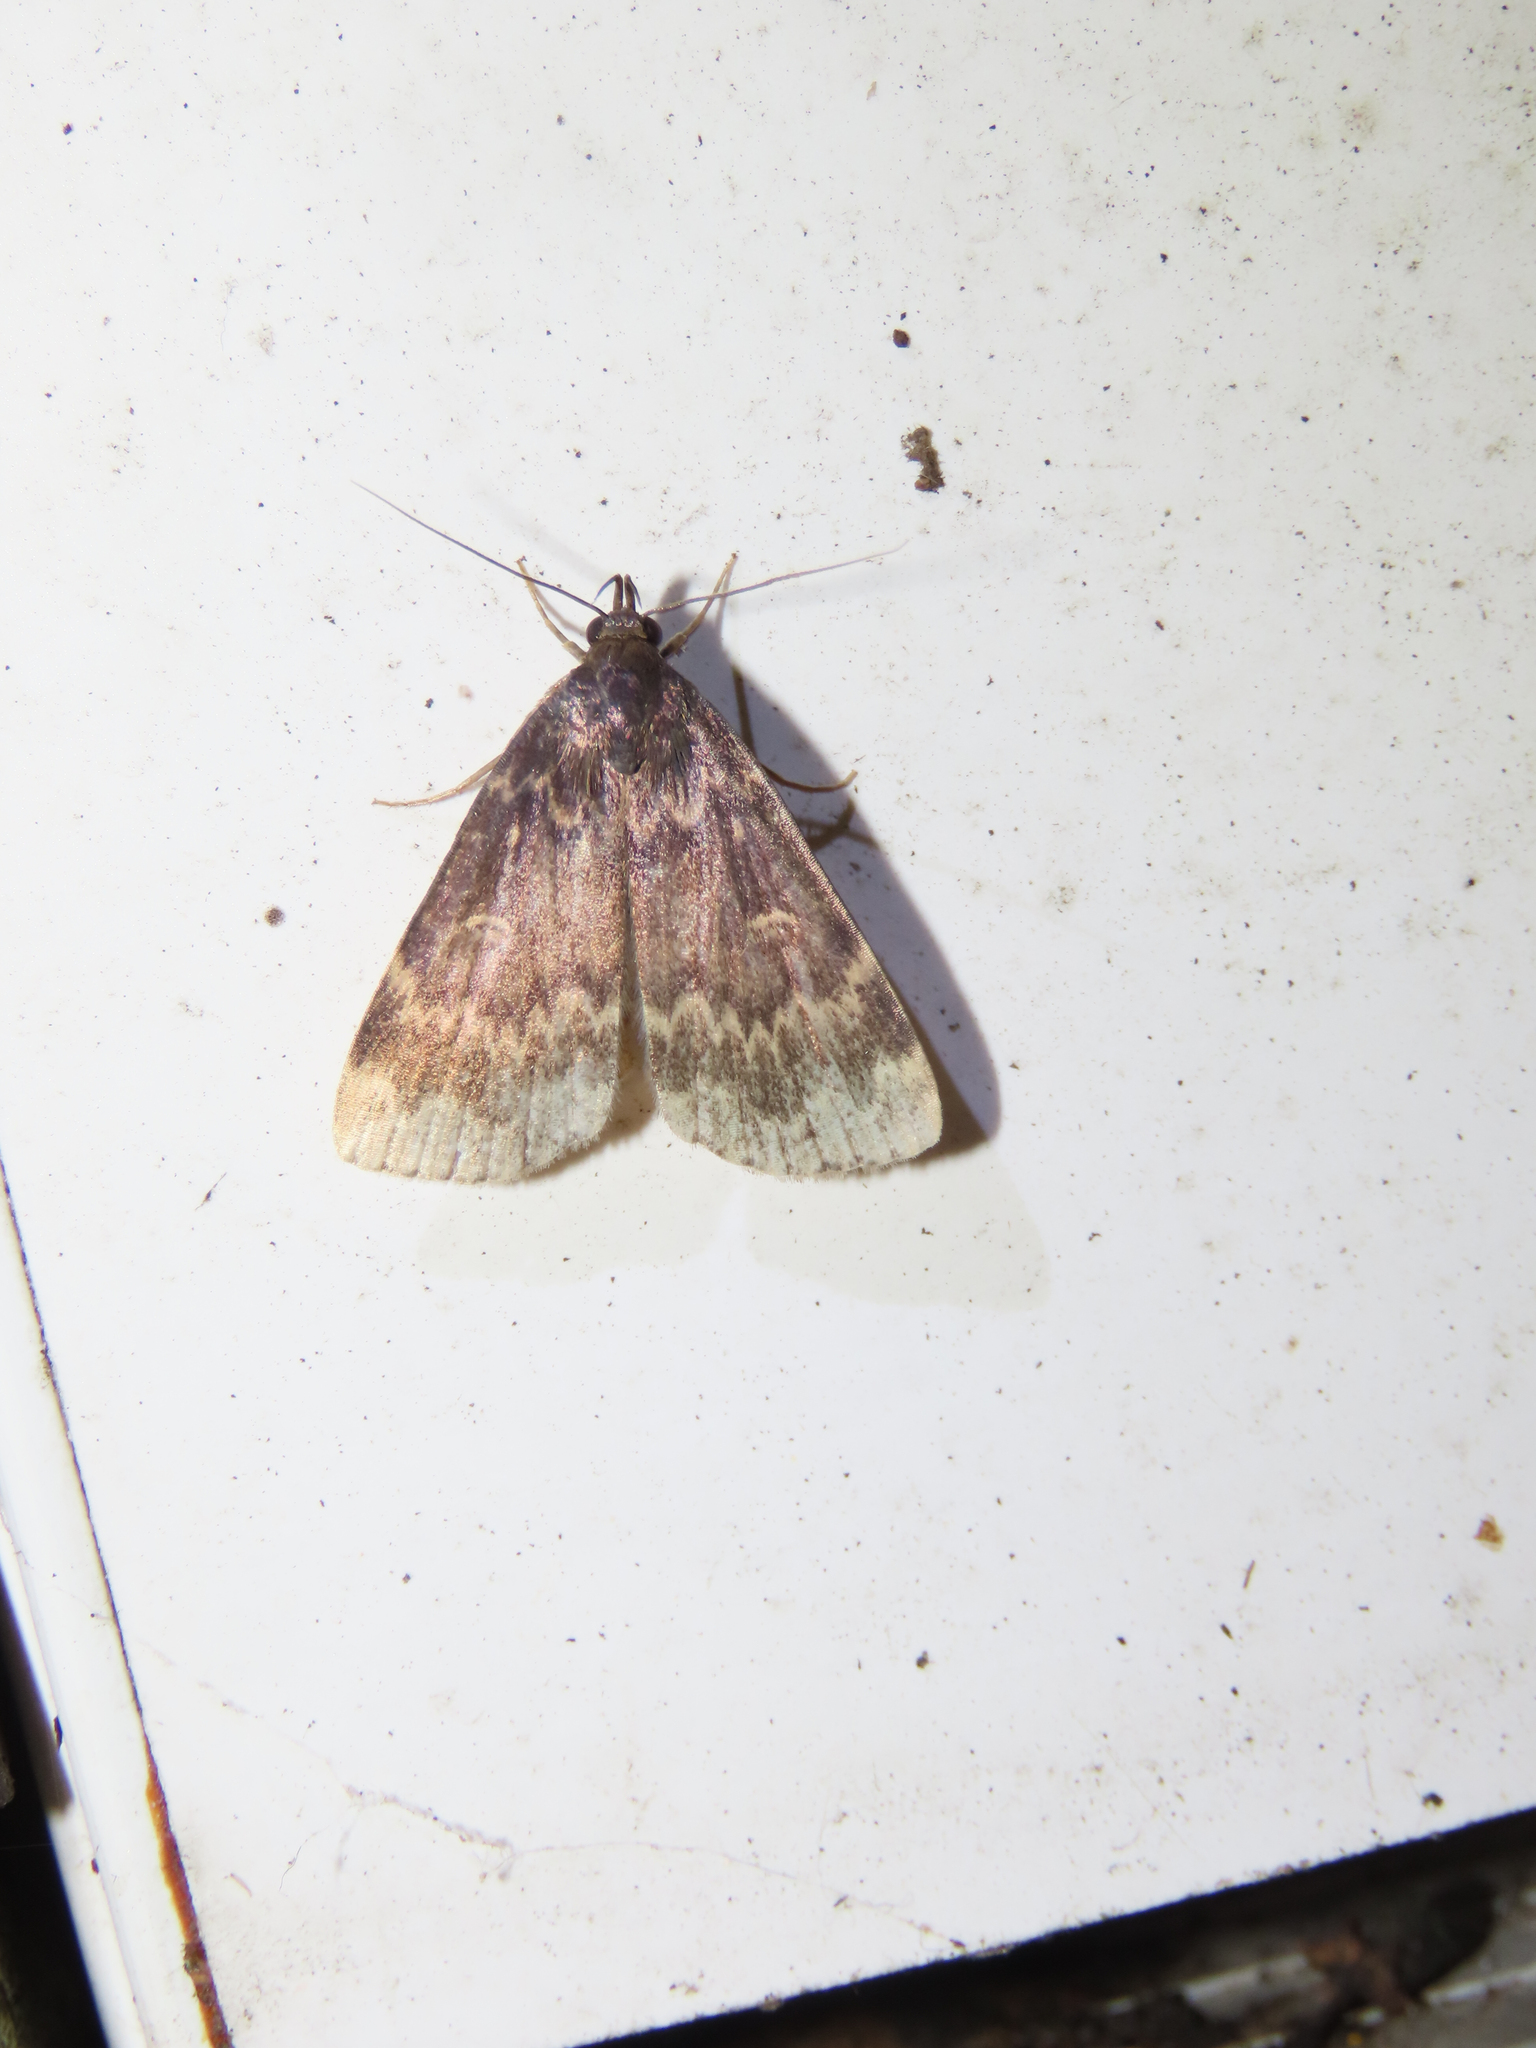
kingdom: Animalia
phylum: Arthropoda
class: Insecta
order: Lepidoptera
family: Erebidae
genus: Idia
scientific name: Idia lubricalis
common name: Twin-striped tabby
